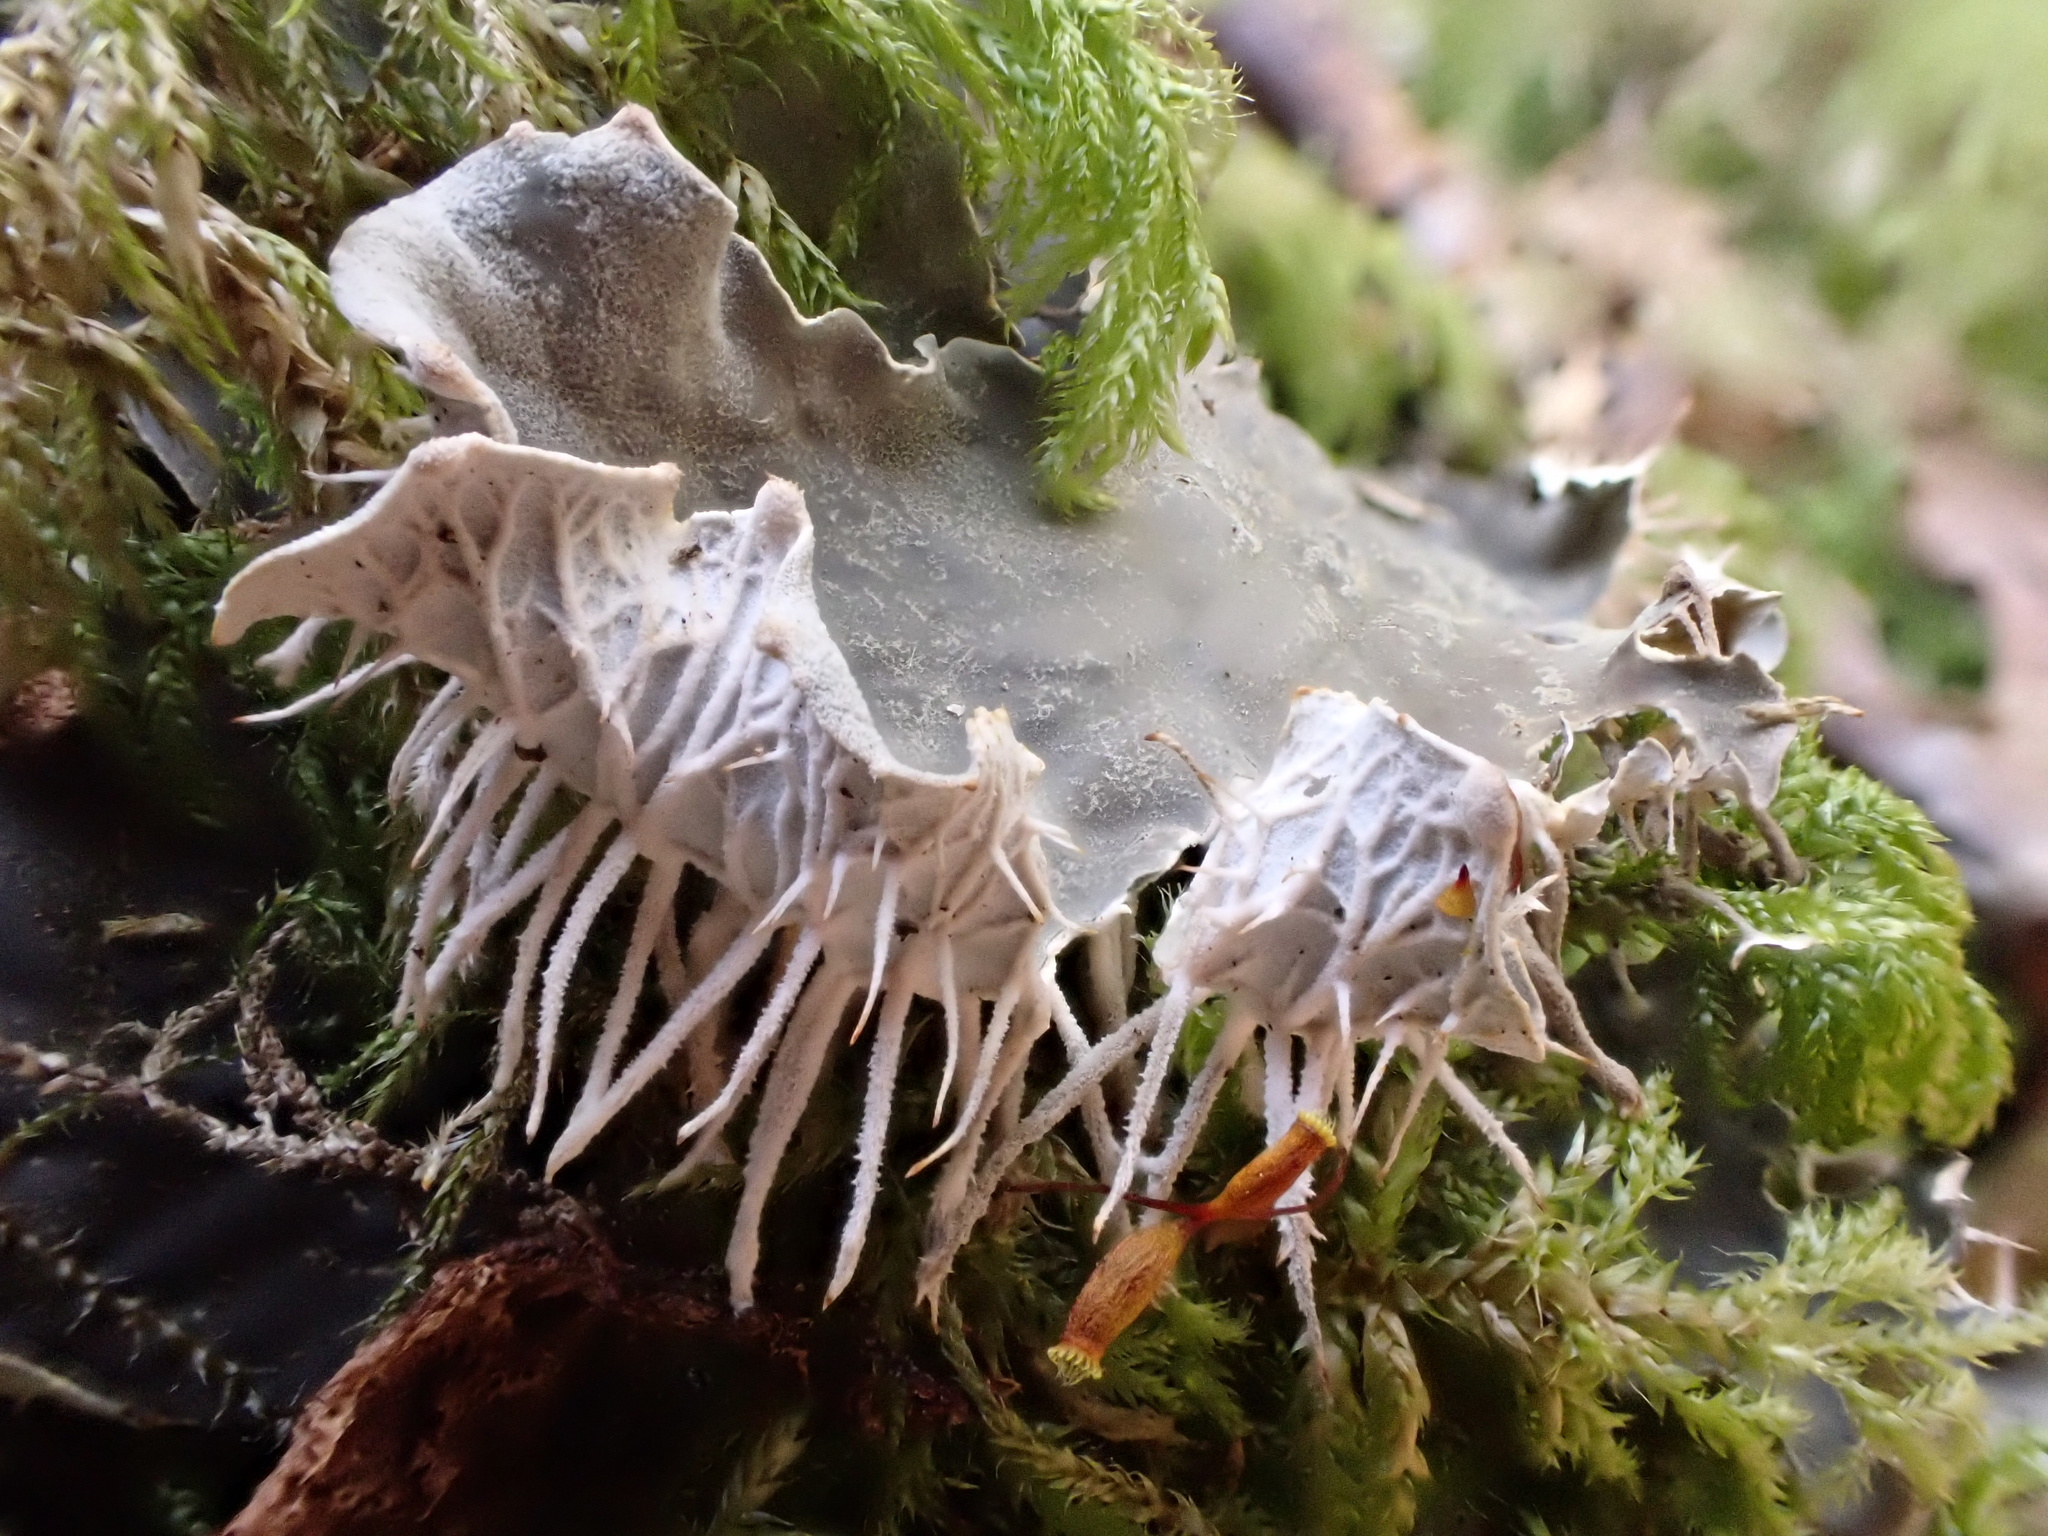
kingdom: Fungi
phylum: Ascomycota
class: Lecanoromycetes
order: Peltigerales
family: Peltigeraceae
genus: Peltigera
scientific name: Peltigera membranacea
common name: Membranous pelt lichen
